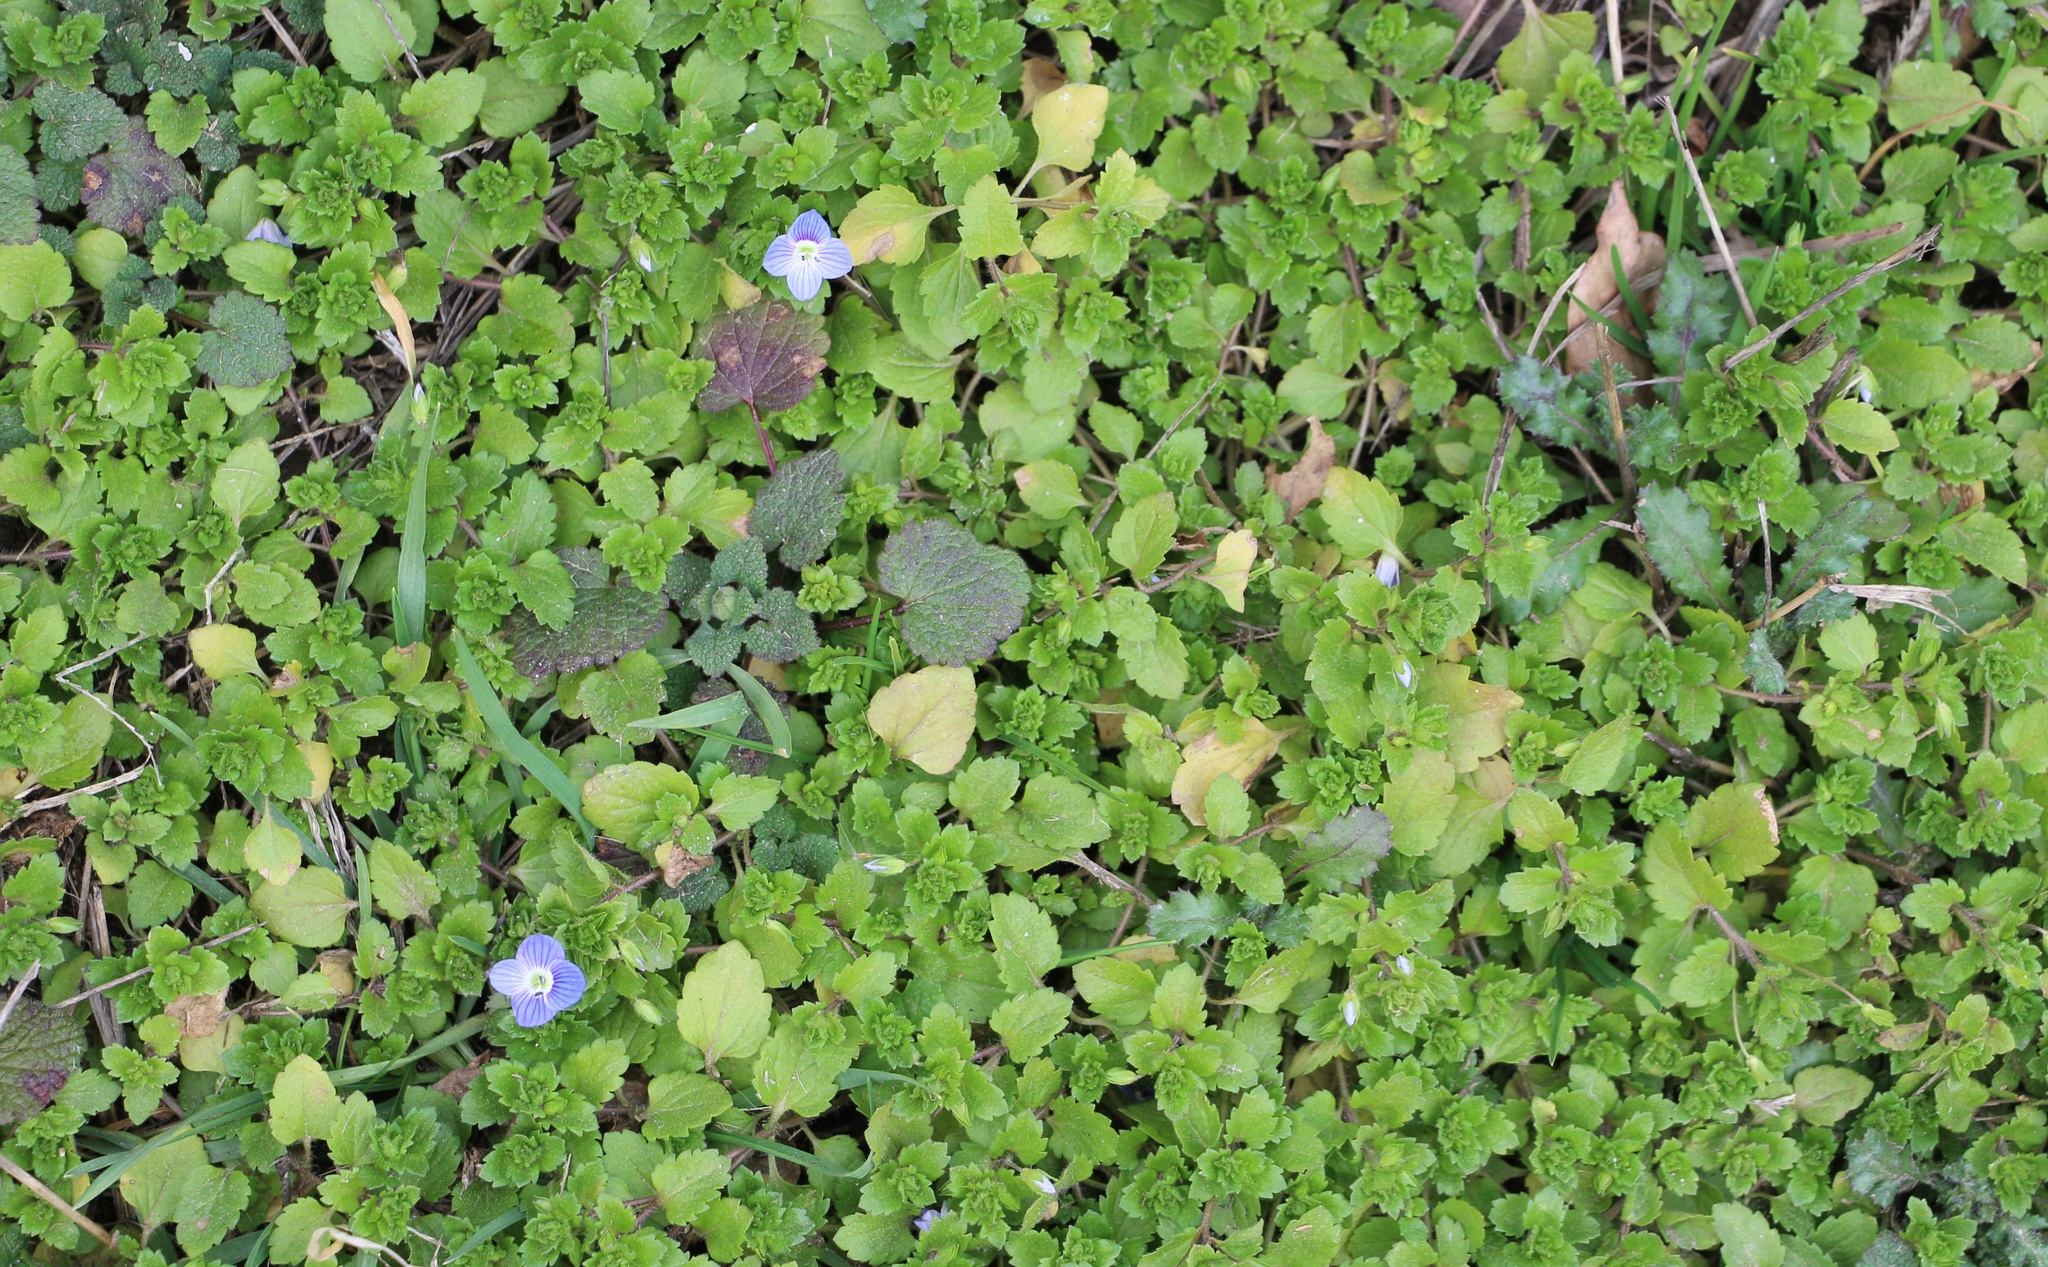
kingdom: Plantae
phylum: Tracheophyta
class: Magnoliopsida
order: Lamiales
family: Plantaginaceae
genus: Veronica
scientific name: Veronica persica
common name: Common field-speedwell
